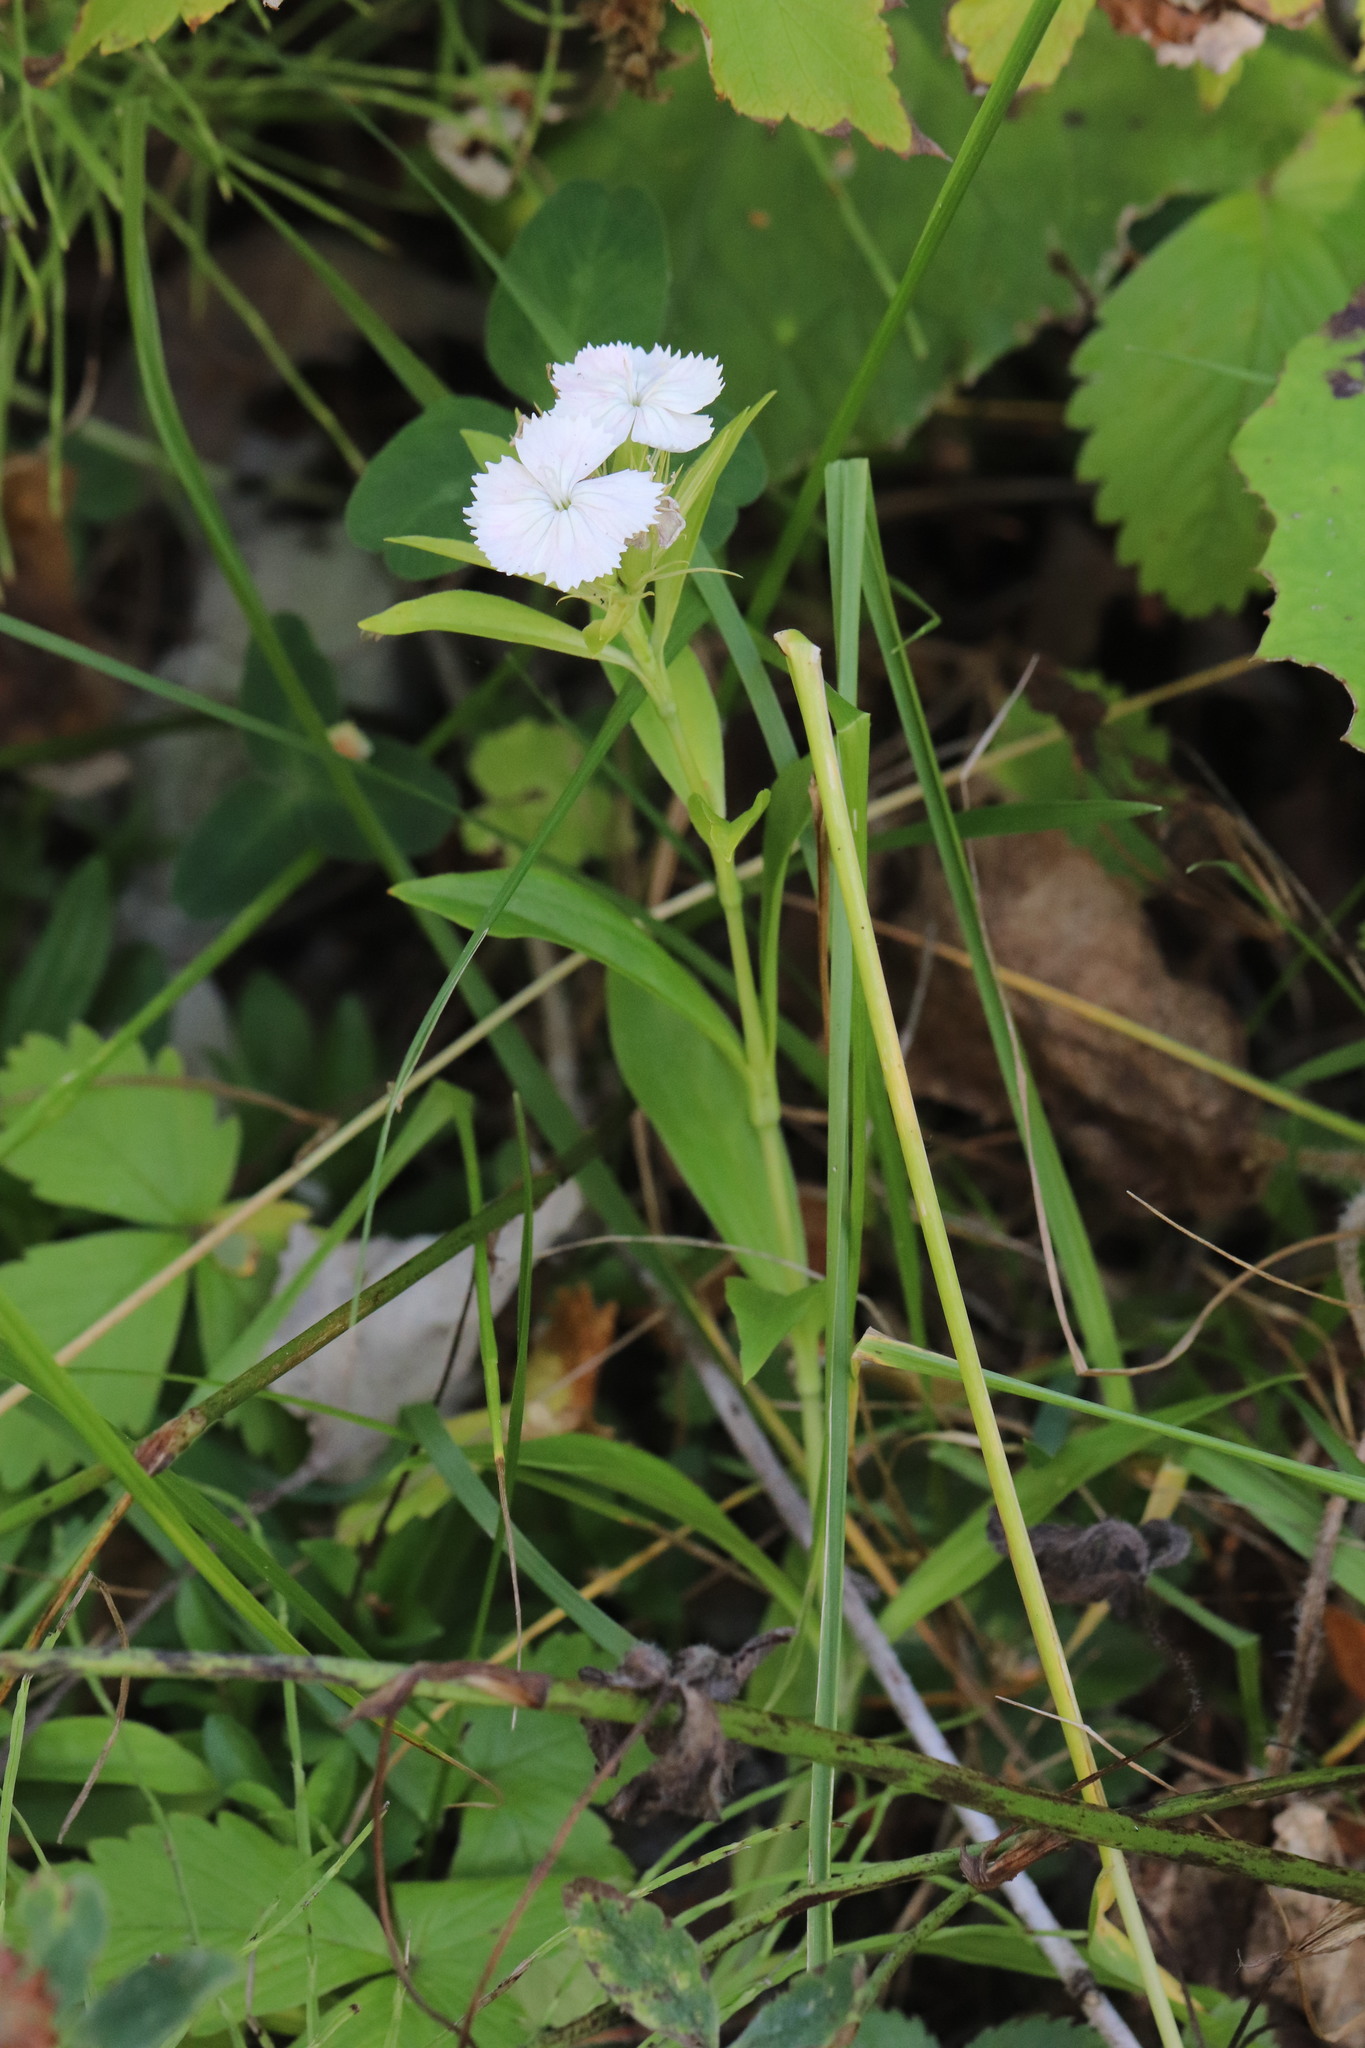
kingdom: Plantae
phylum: Tracheophyta
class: Magnoliopsida
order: Caryophyllales
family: Caryophyllaceae
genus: Dianthus
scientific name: Dianthus barbatus
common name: Sweet-william
